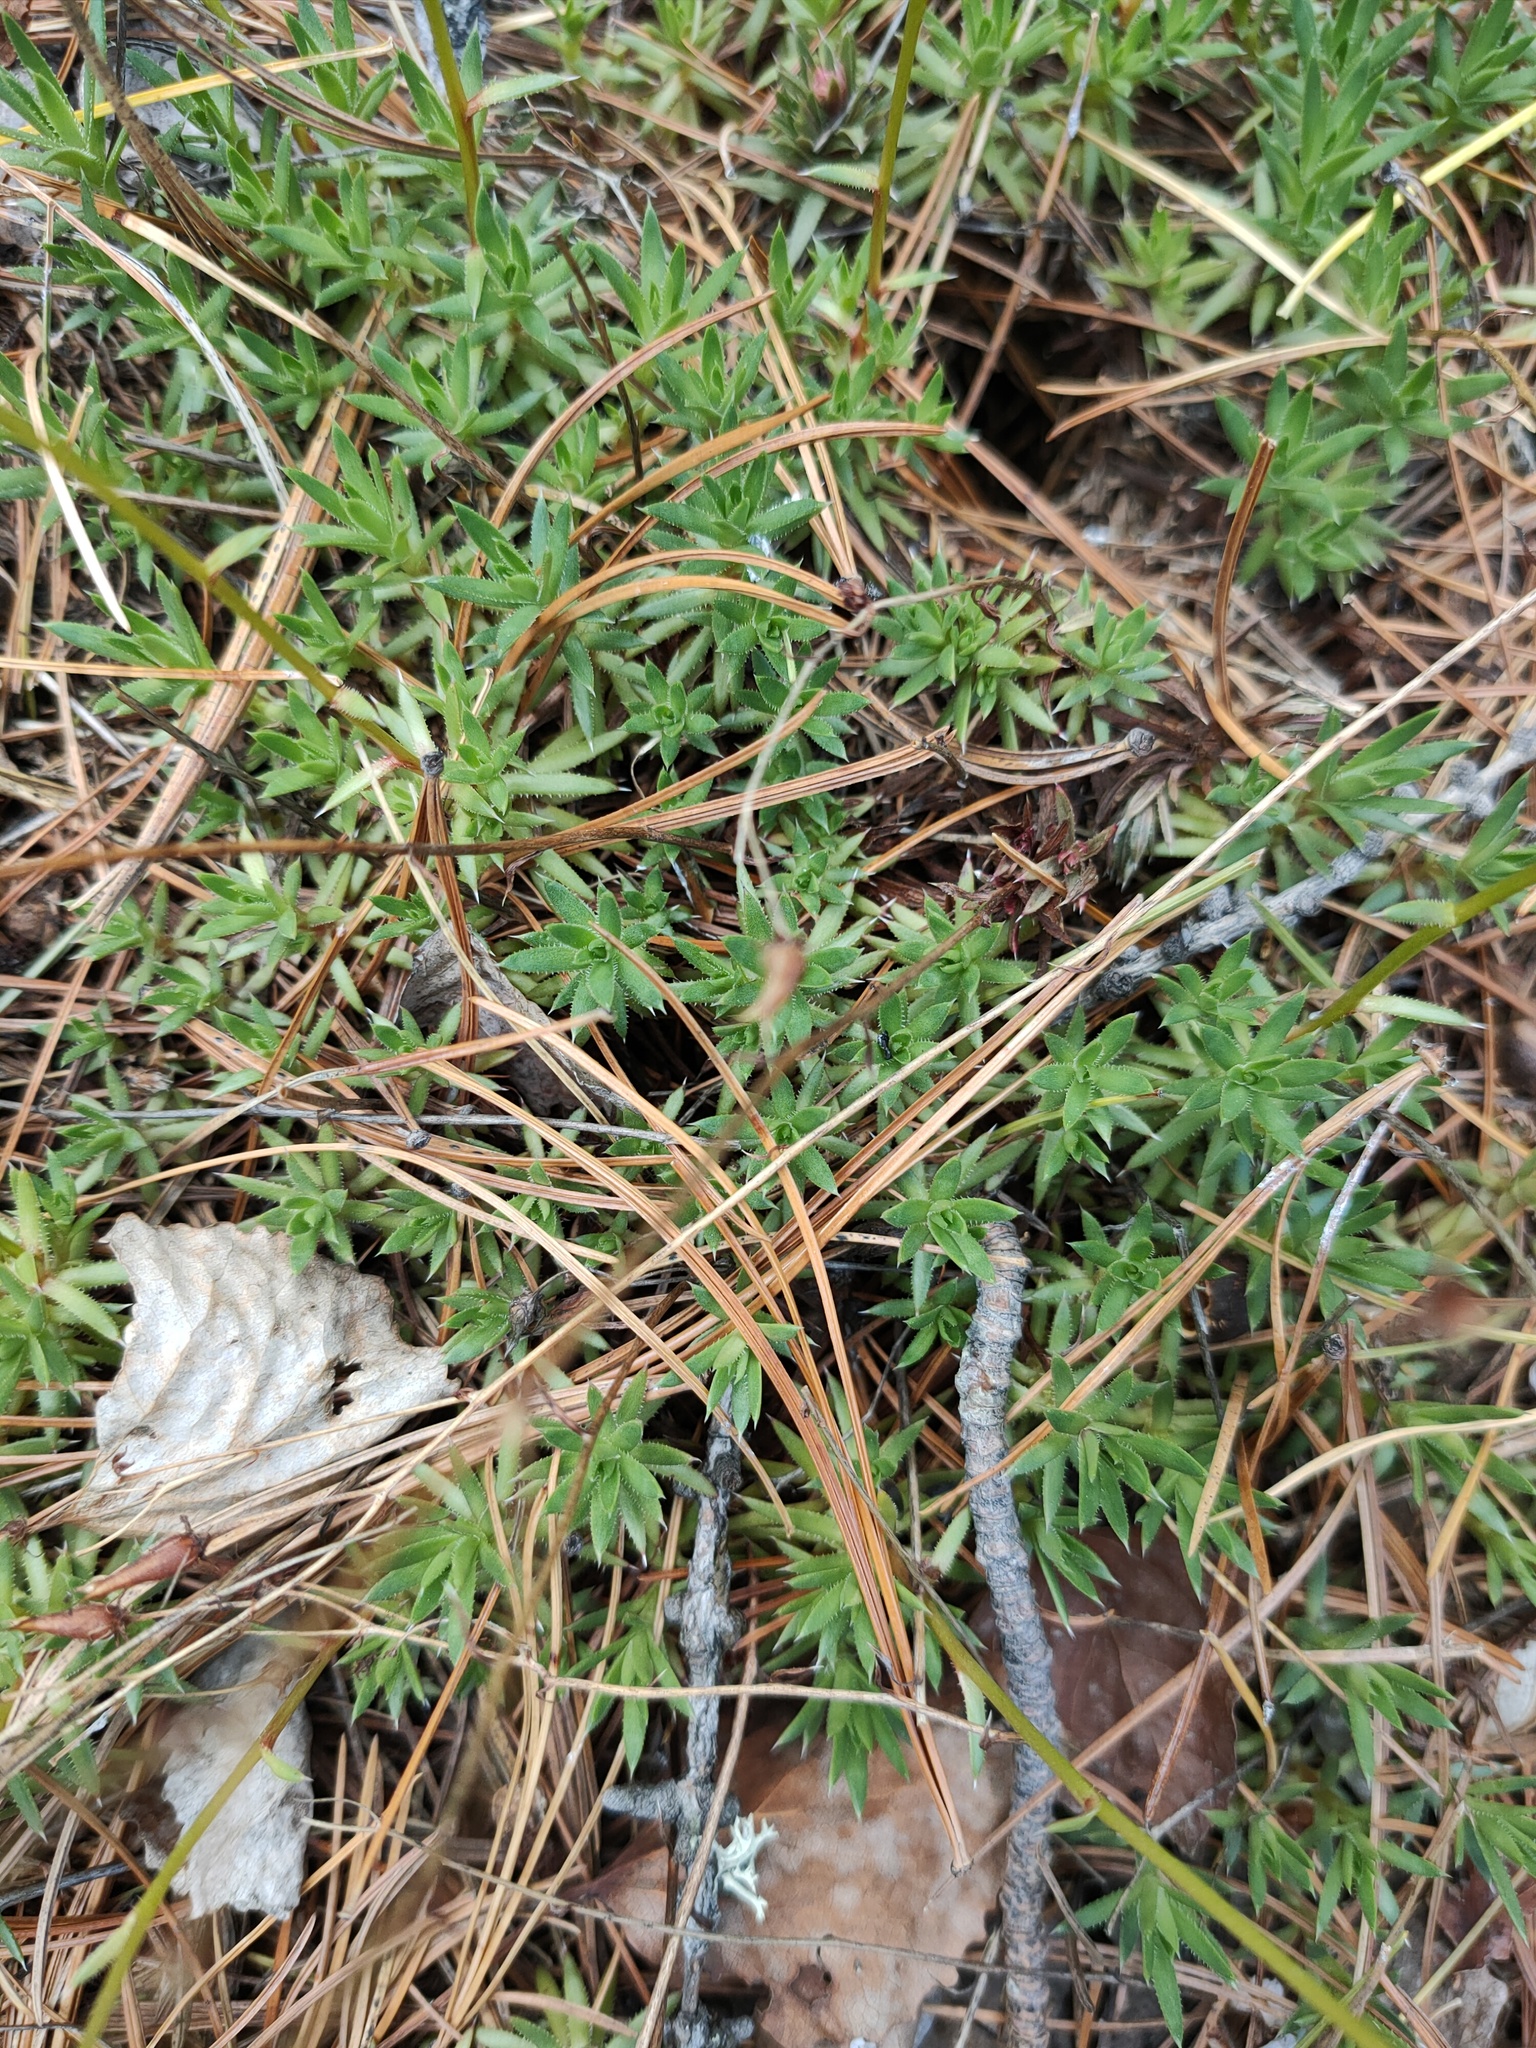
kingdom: Plantae
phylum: Tracheophyta
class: Magnoliopsida
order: Saxifragales
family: Saxifragaceae
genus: Saxifraga
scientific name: Saxifraga
